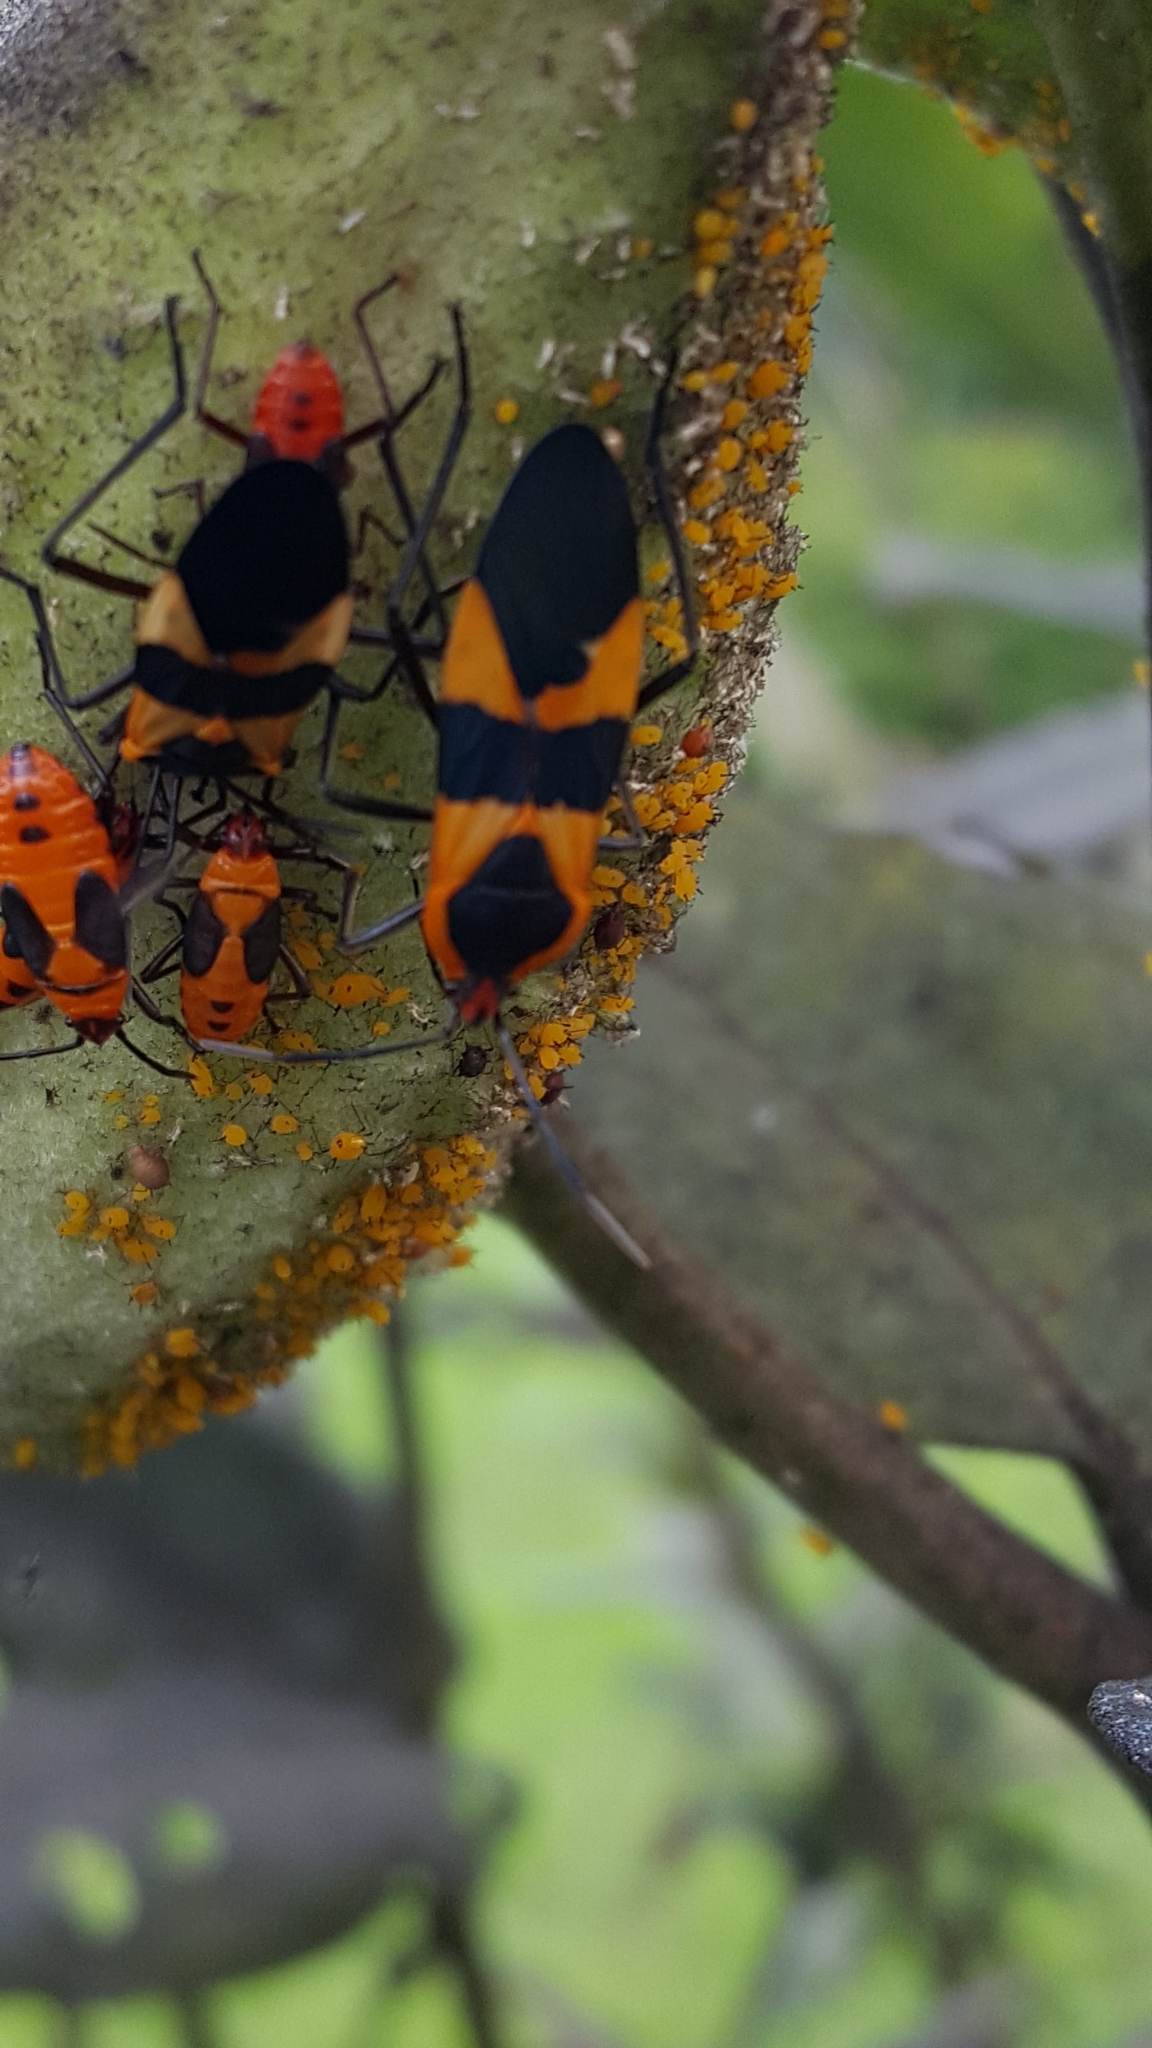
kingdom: Animalia
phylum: Arthropoda
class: Insecta
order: Hemiptera
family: Lygaeidae
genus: Oncopeltus
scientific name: Oncopeltus fasciatus
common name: Large milkweed bug
